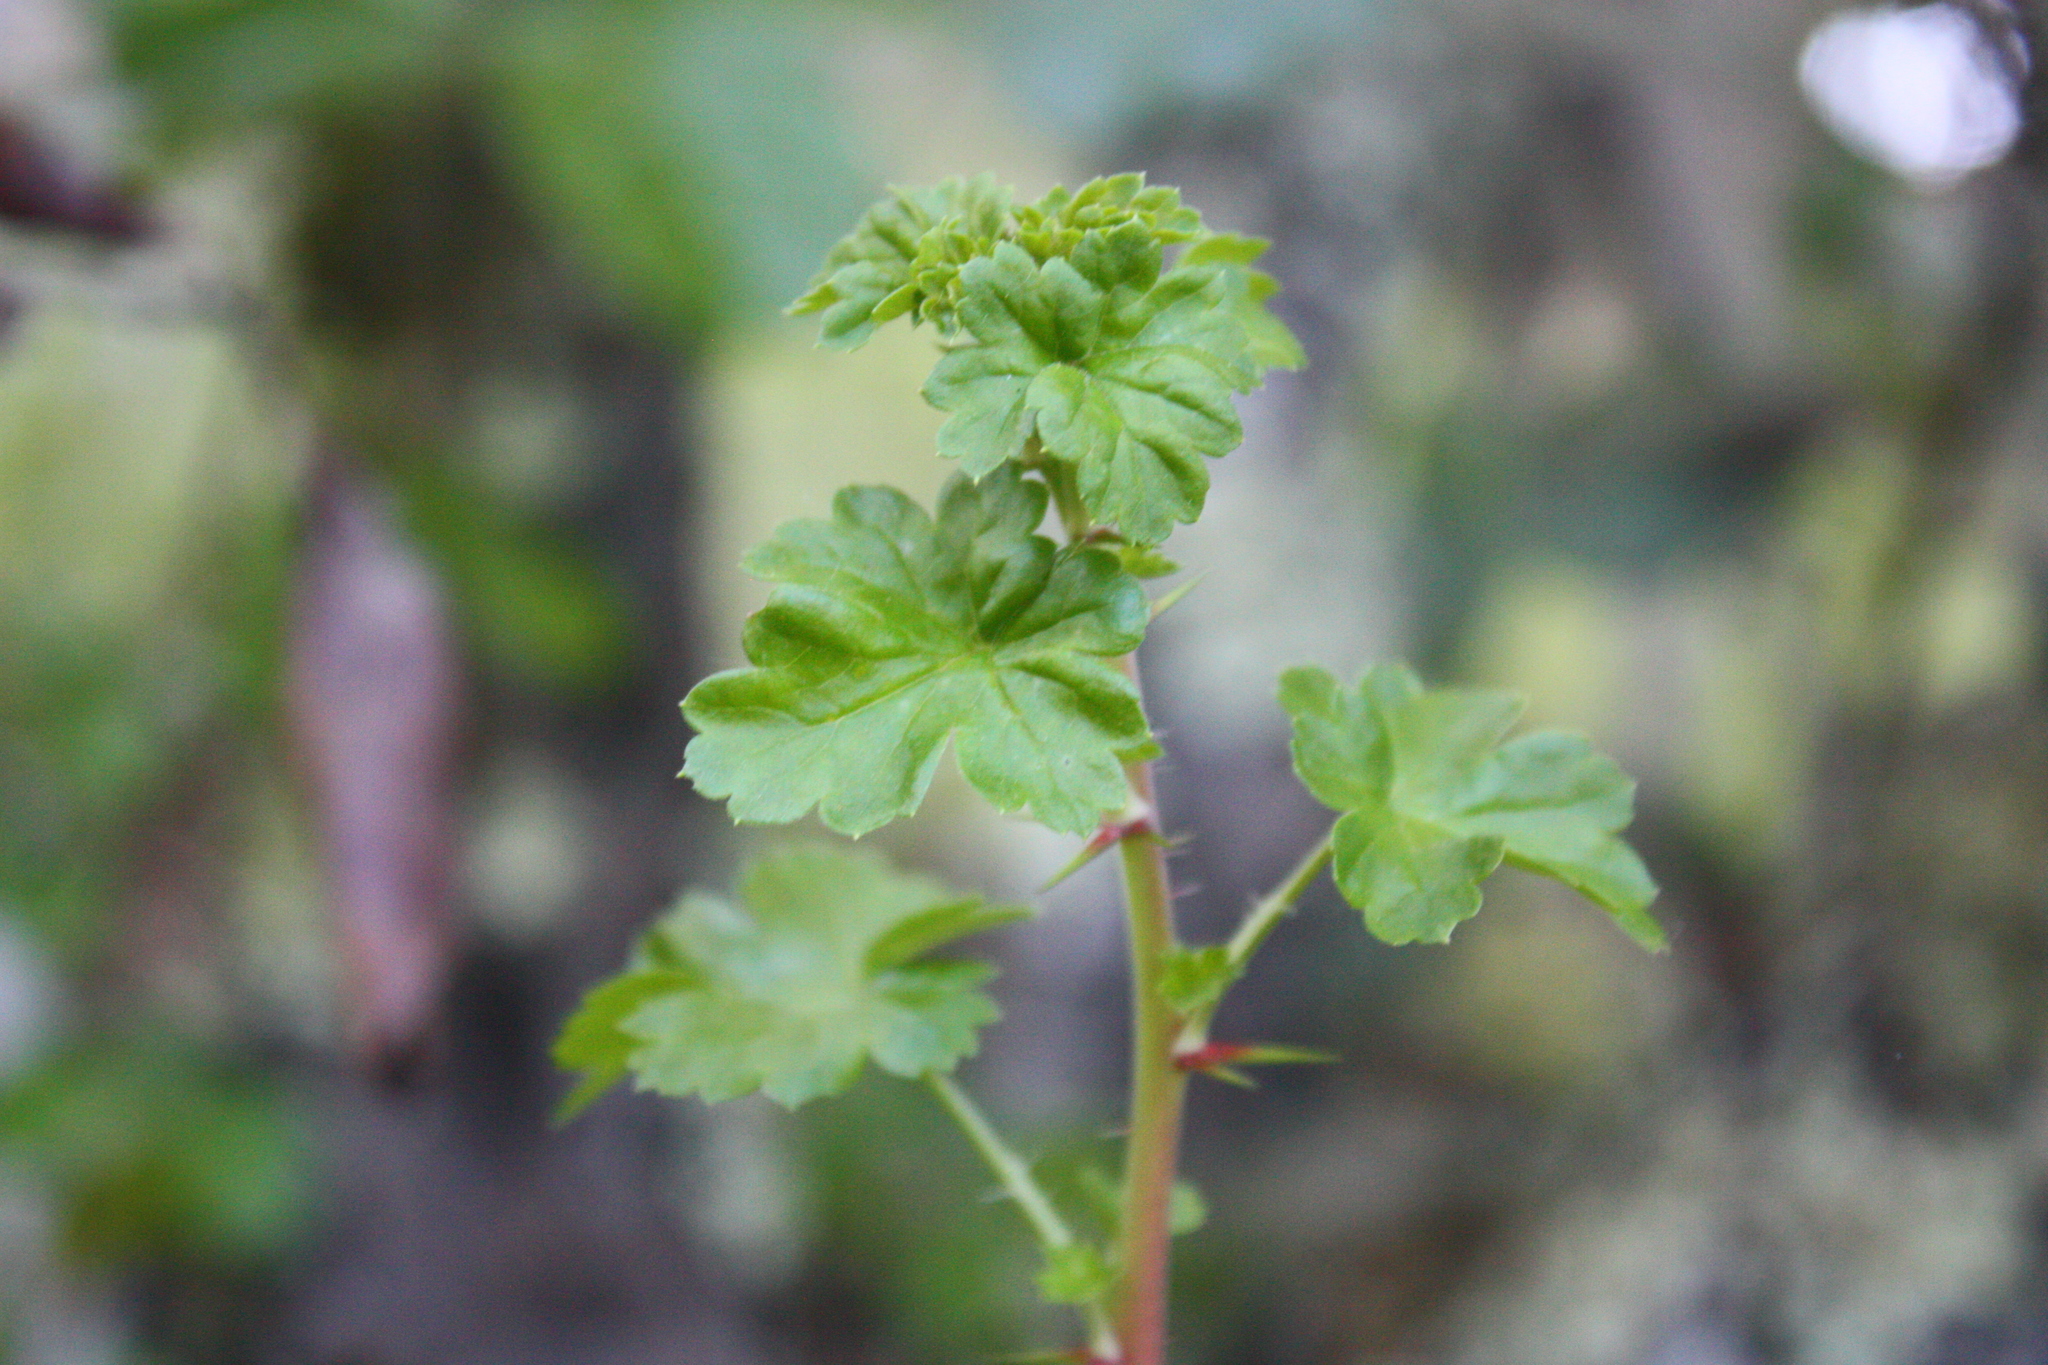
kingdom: Plantae
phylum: Tracheophyta
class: Magnoliopsida
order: Saxifragales
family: Grossulariaceae
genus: Ribes
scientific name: Ribes californicum
